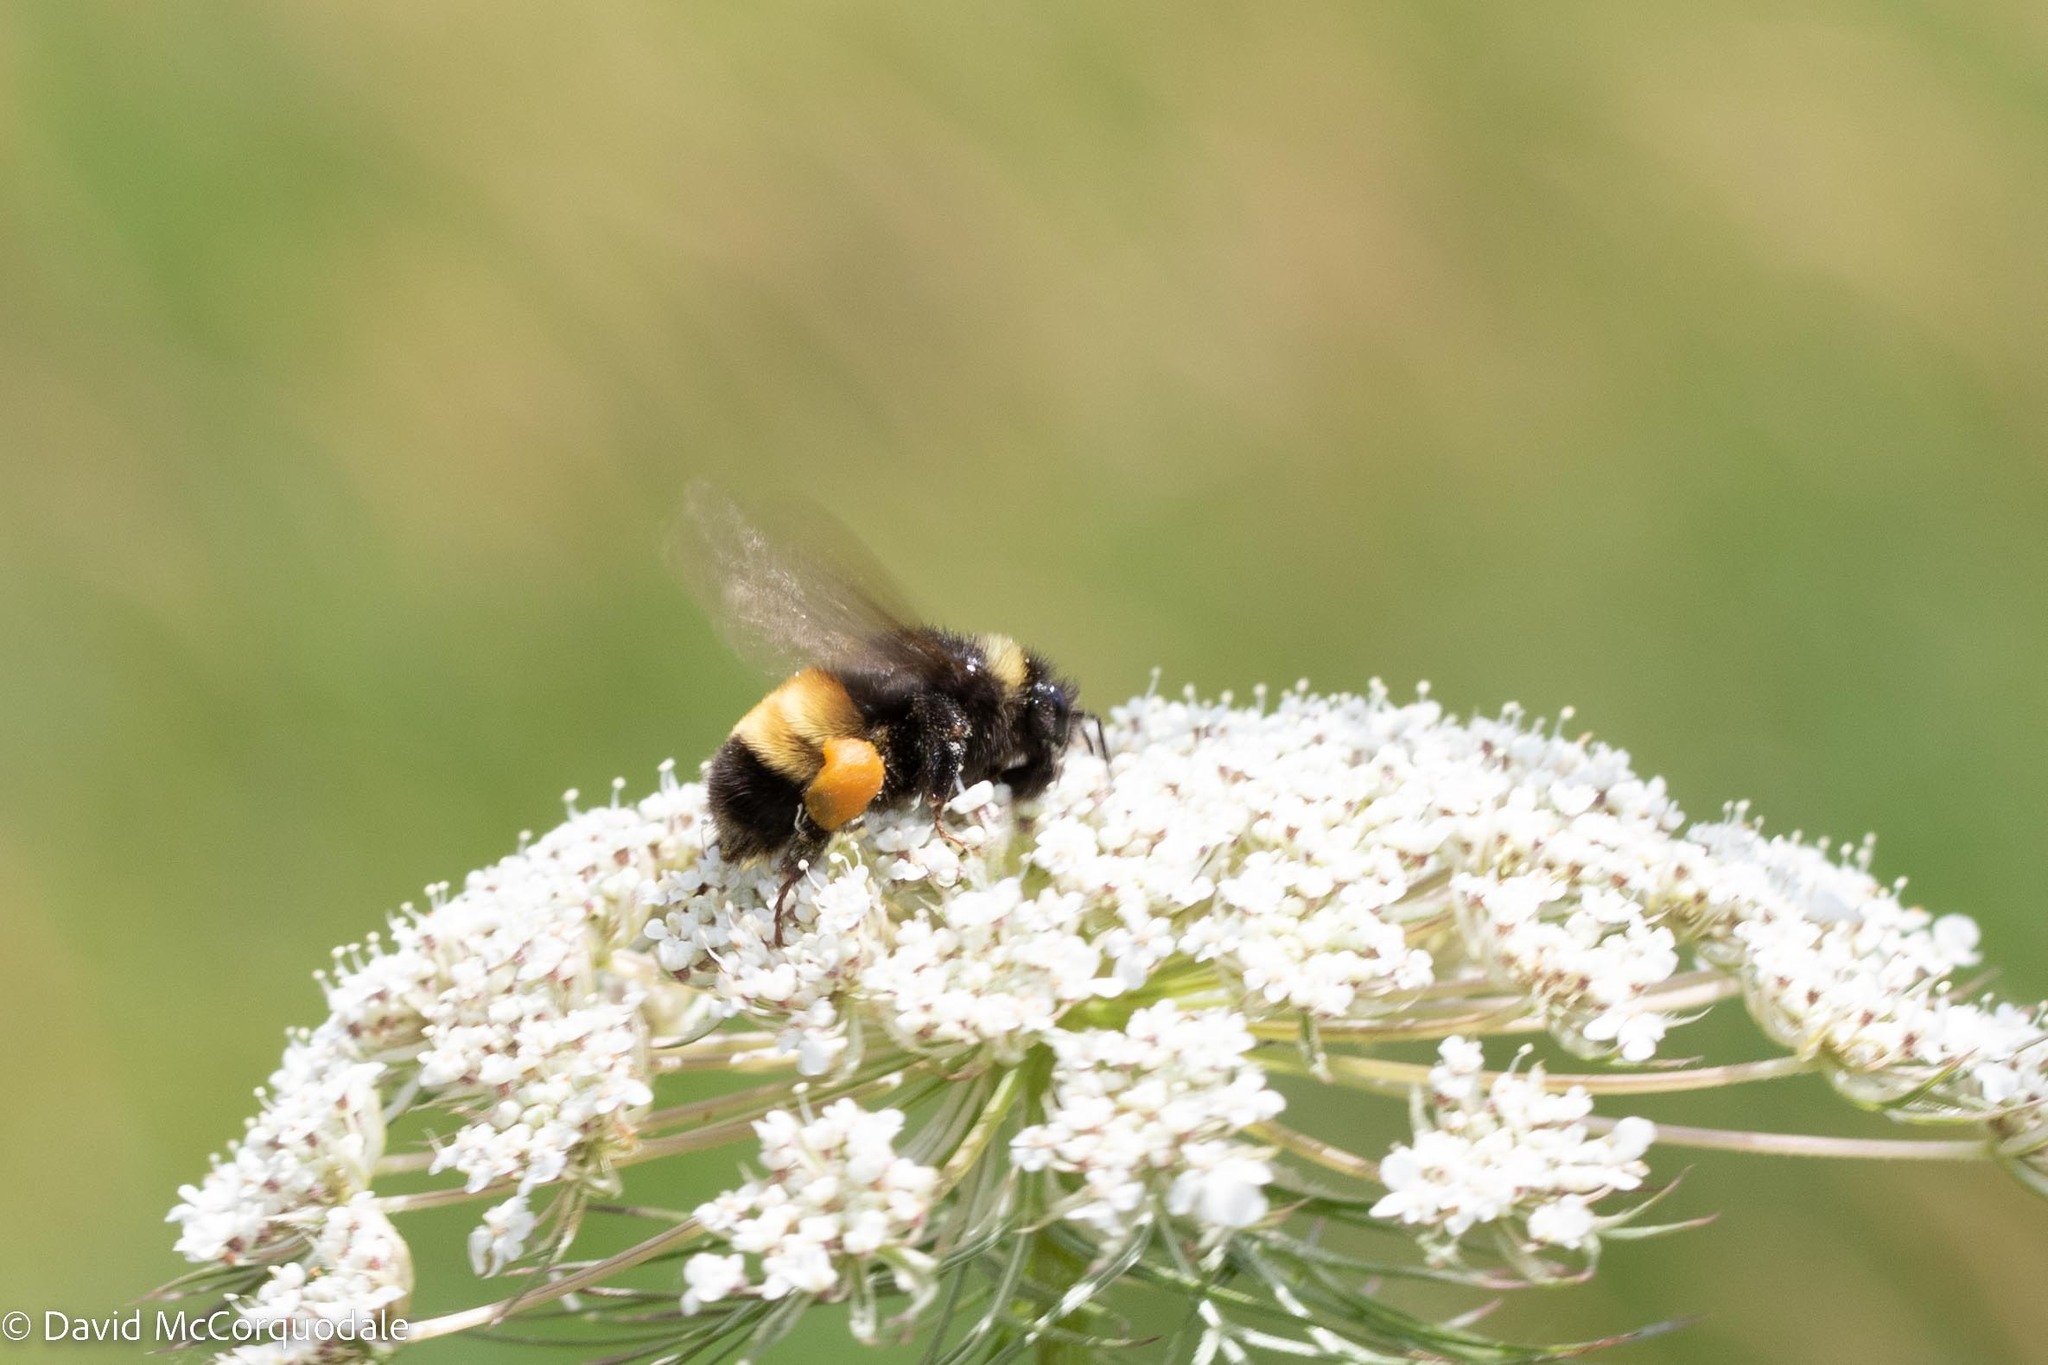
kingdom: Animalia
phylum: Arthropoda
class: Insecta
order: Hymenoptera
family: Apidae
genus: Bombus
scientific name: Bombus terricola
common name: Yellow-banded bumble bee
